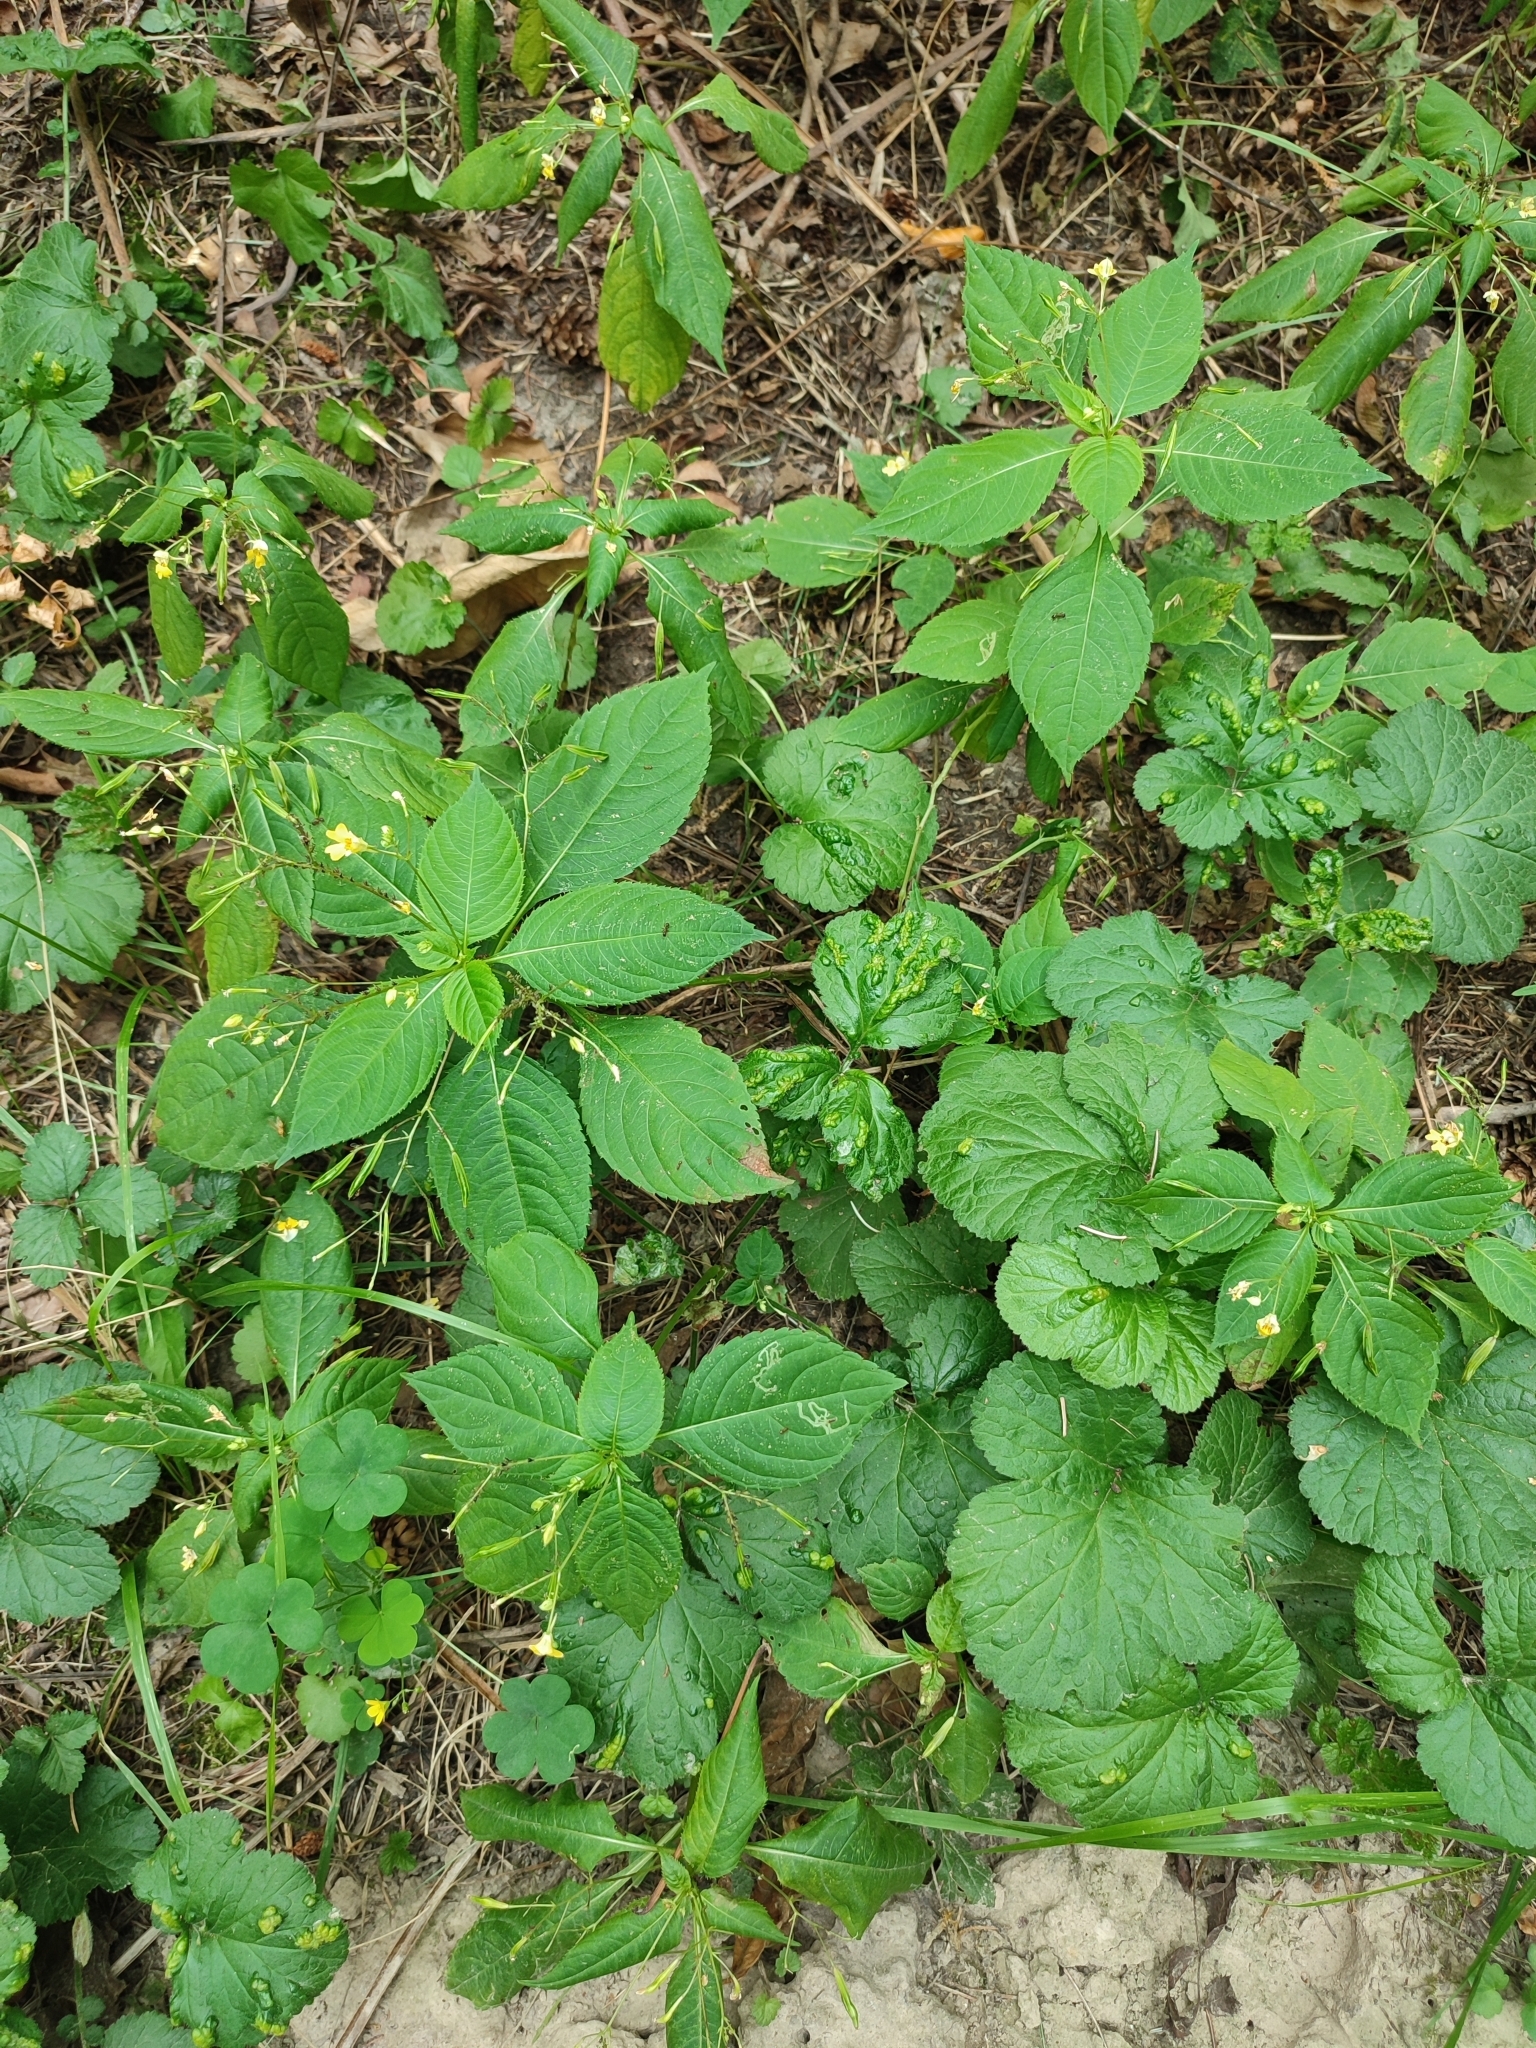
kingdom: Plantae
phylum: Tracheophyta
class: Magnoliopsida
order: Ericales
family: Balsaminaceae
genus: Impatiens
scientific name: Impatiens parviflora
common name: Small balsam
